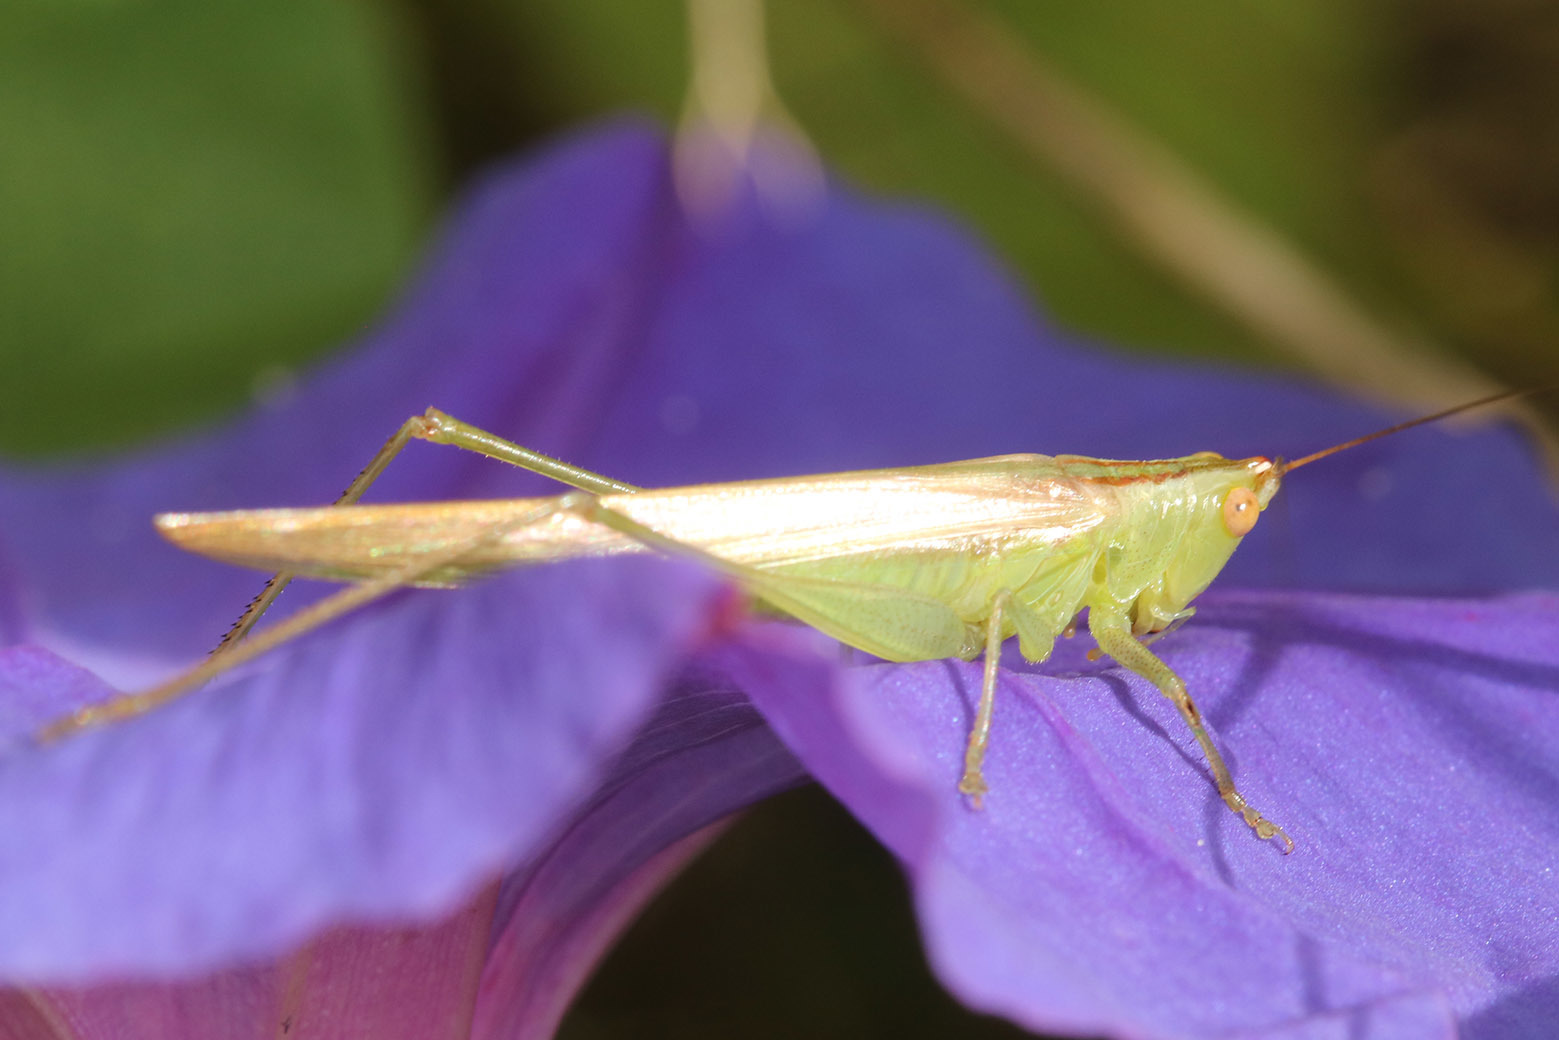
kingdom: Animalia
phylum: Arthropoda
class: Insecta
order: Orthoptera
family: Tettigoniidae
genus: Conocephalus
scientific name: Conocephalus longipes
